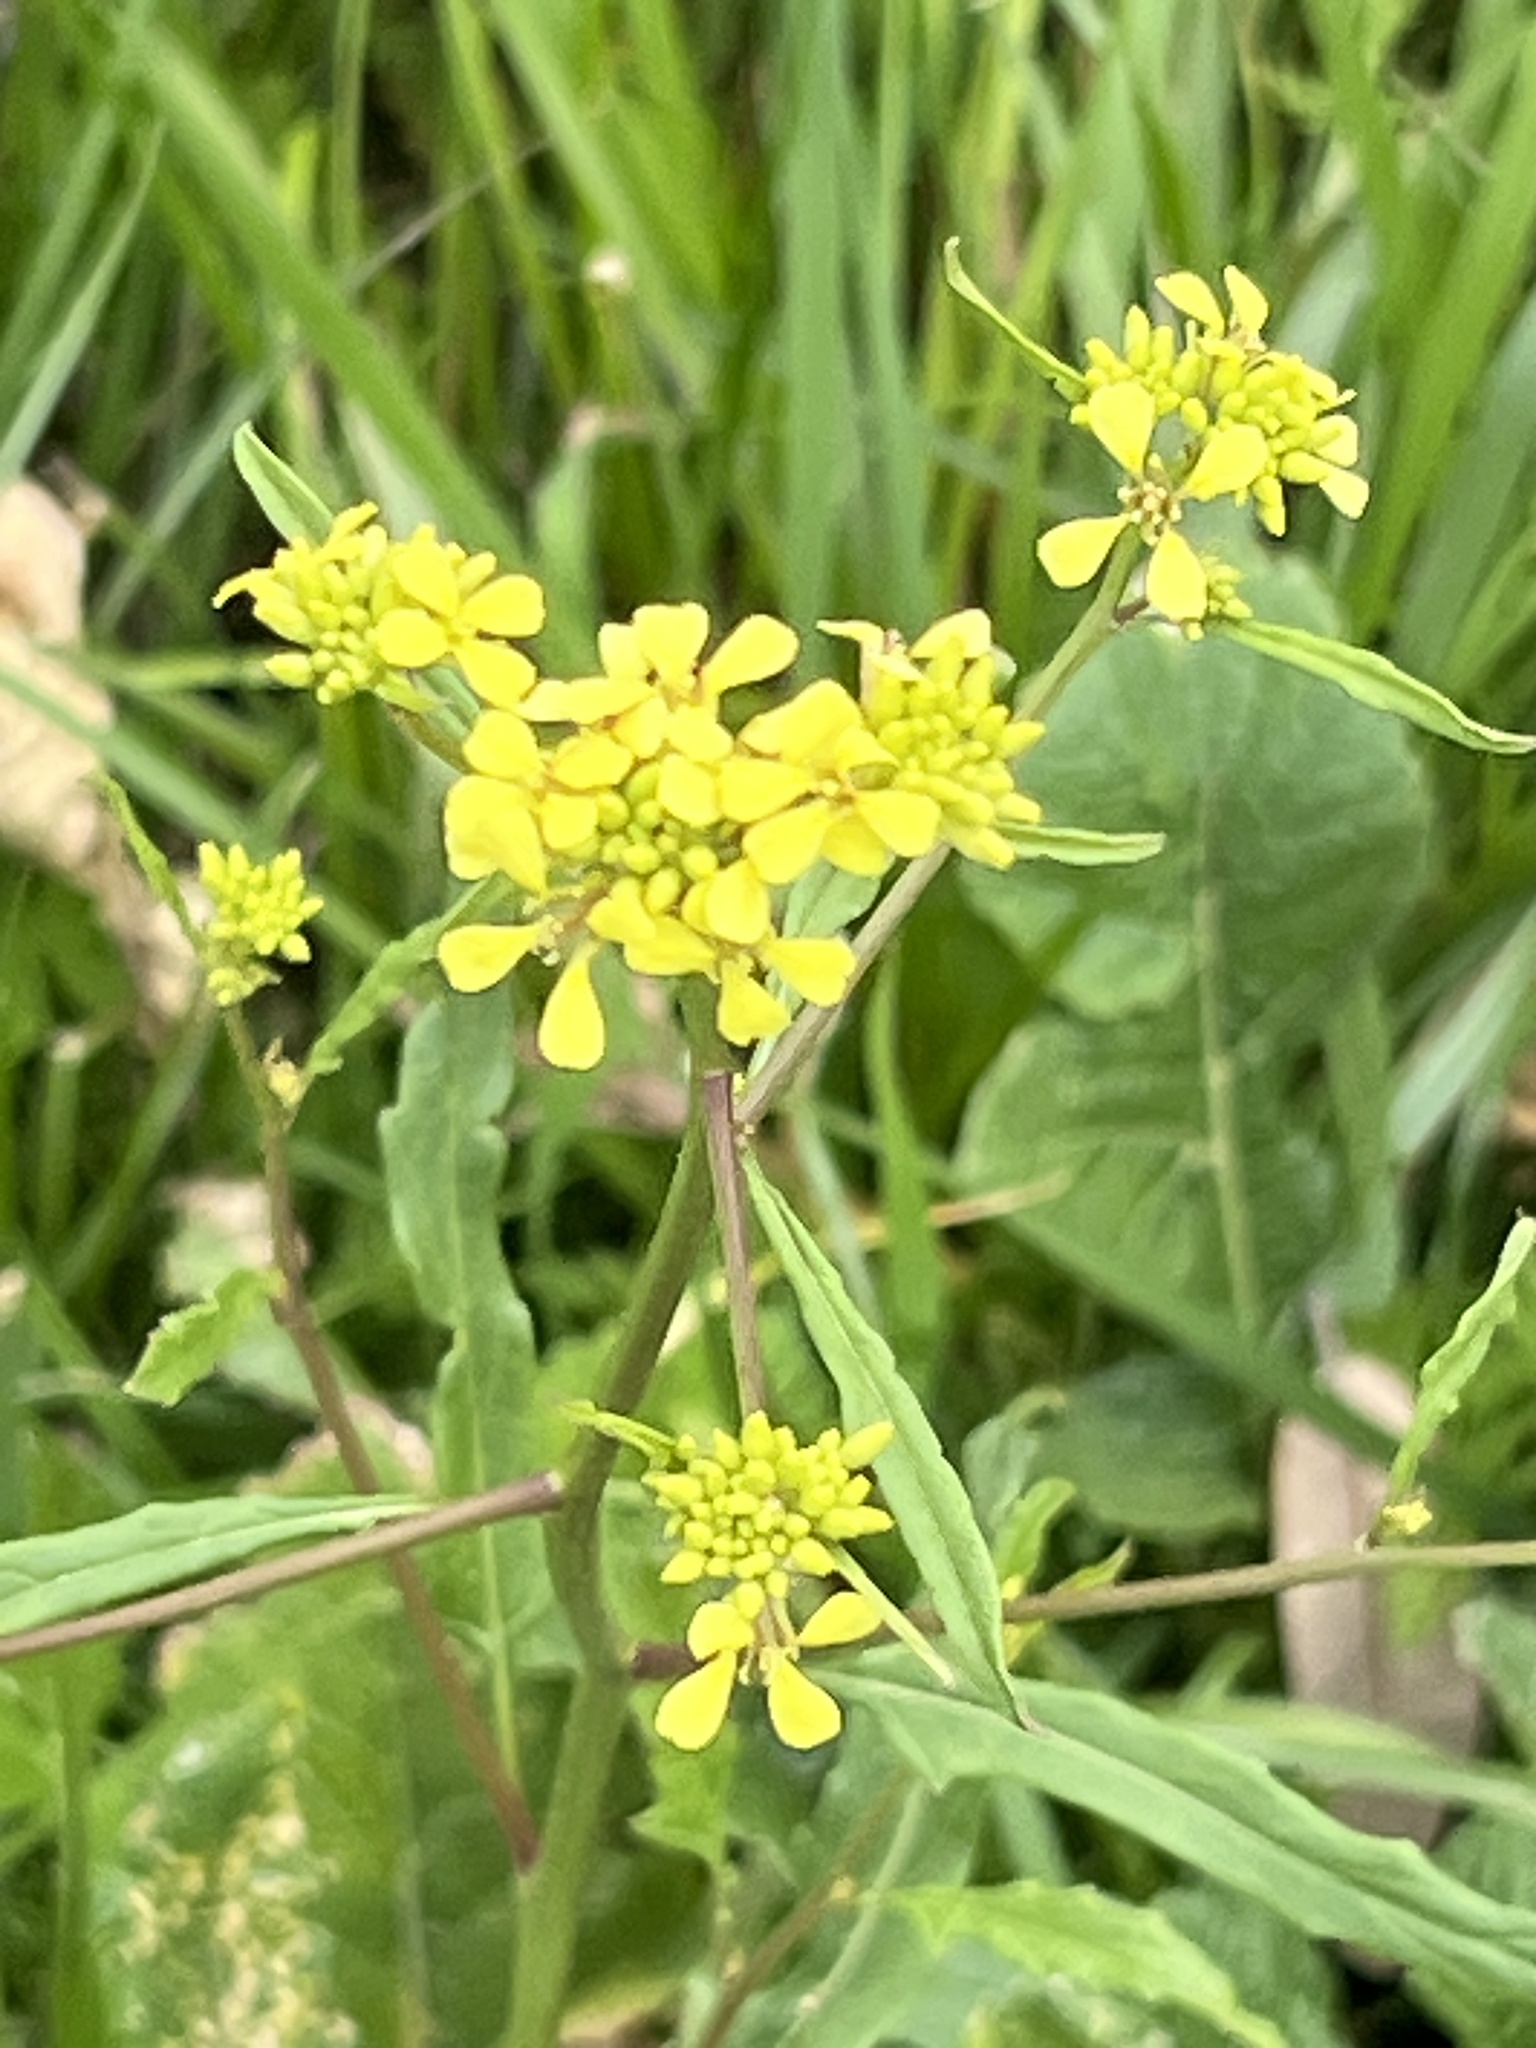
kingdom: Plantae
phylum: Tracheophyta
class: Magnoliopsida
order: Brassicales
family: Brassicaceae
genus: Rapistrum
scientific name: Rapistrum rugosum
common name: Annual bastardcabbage
